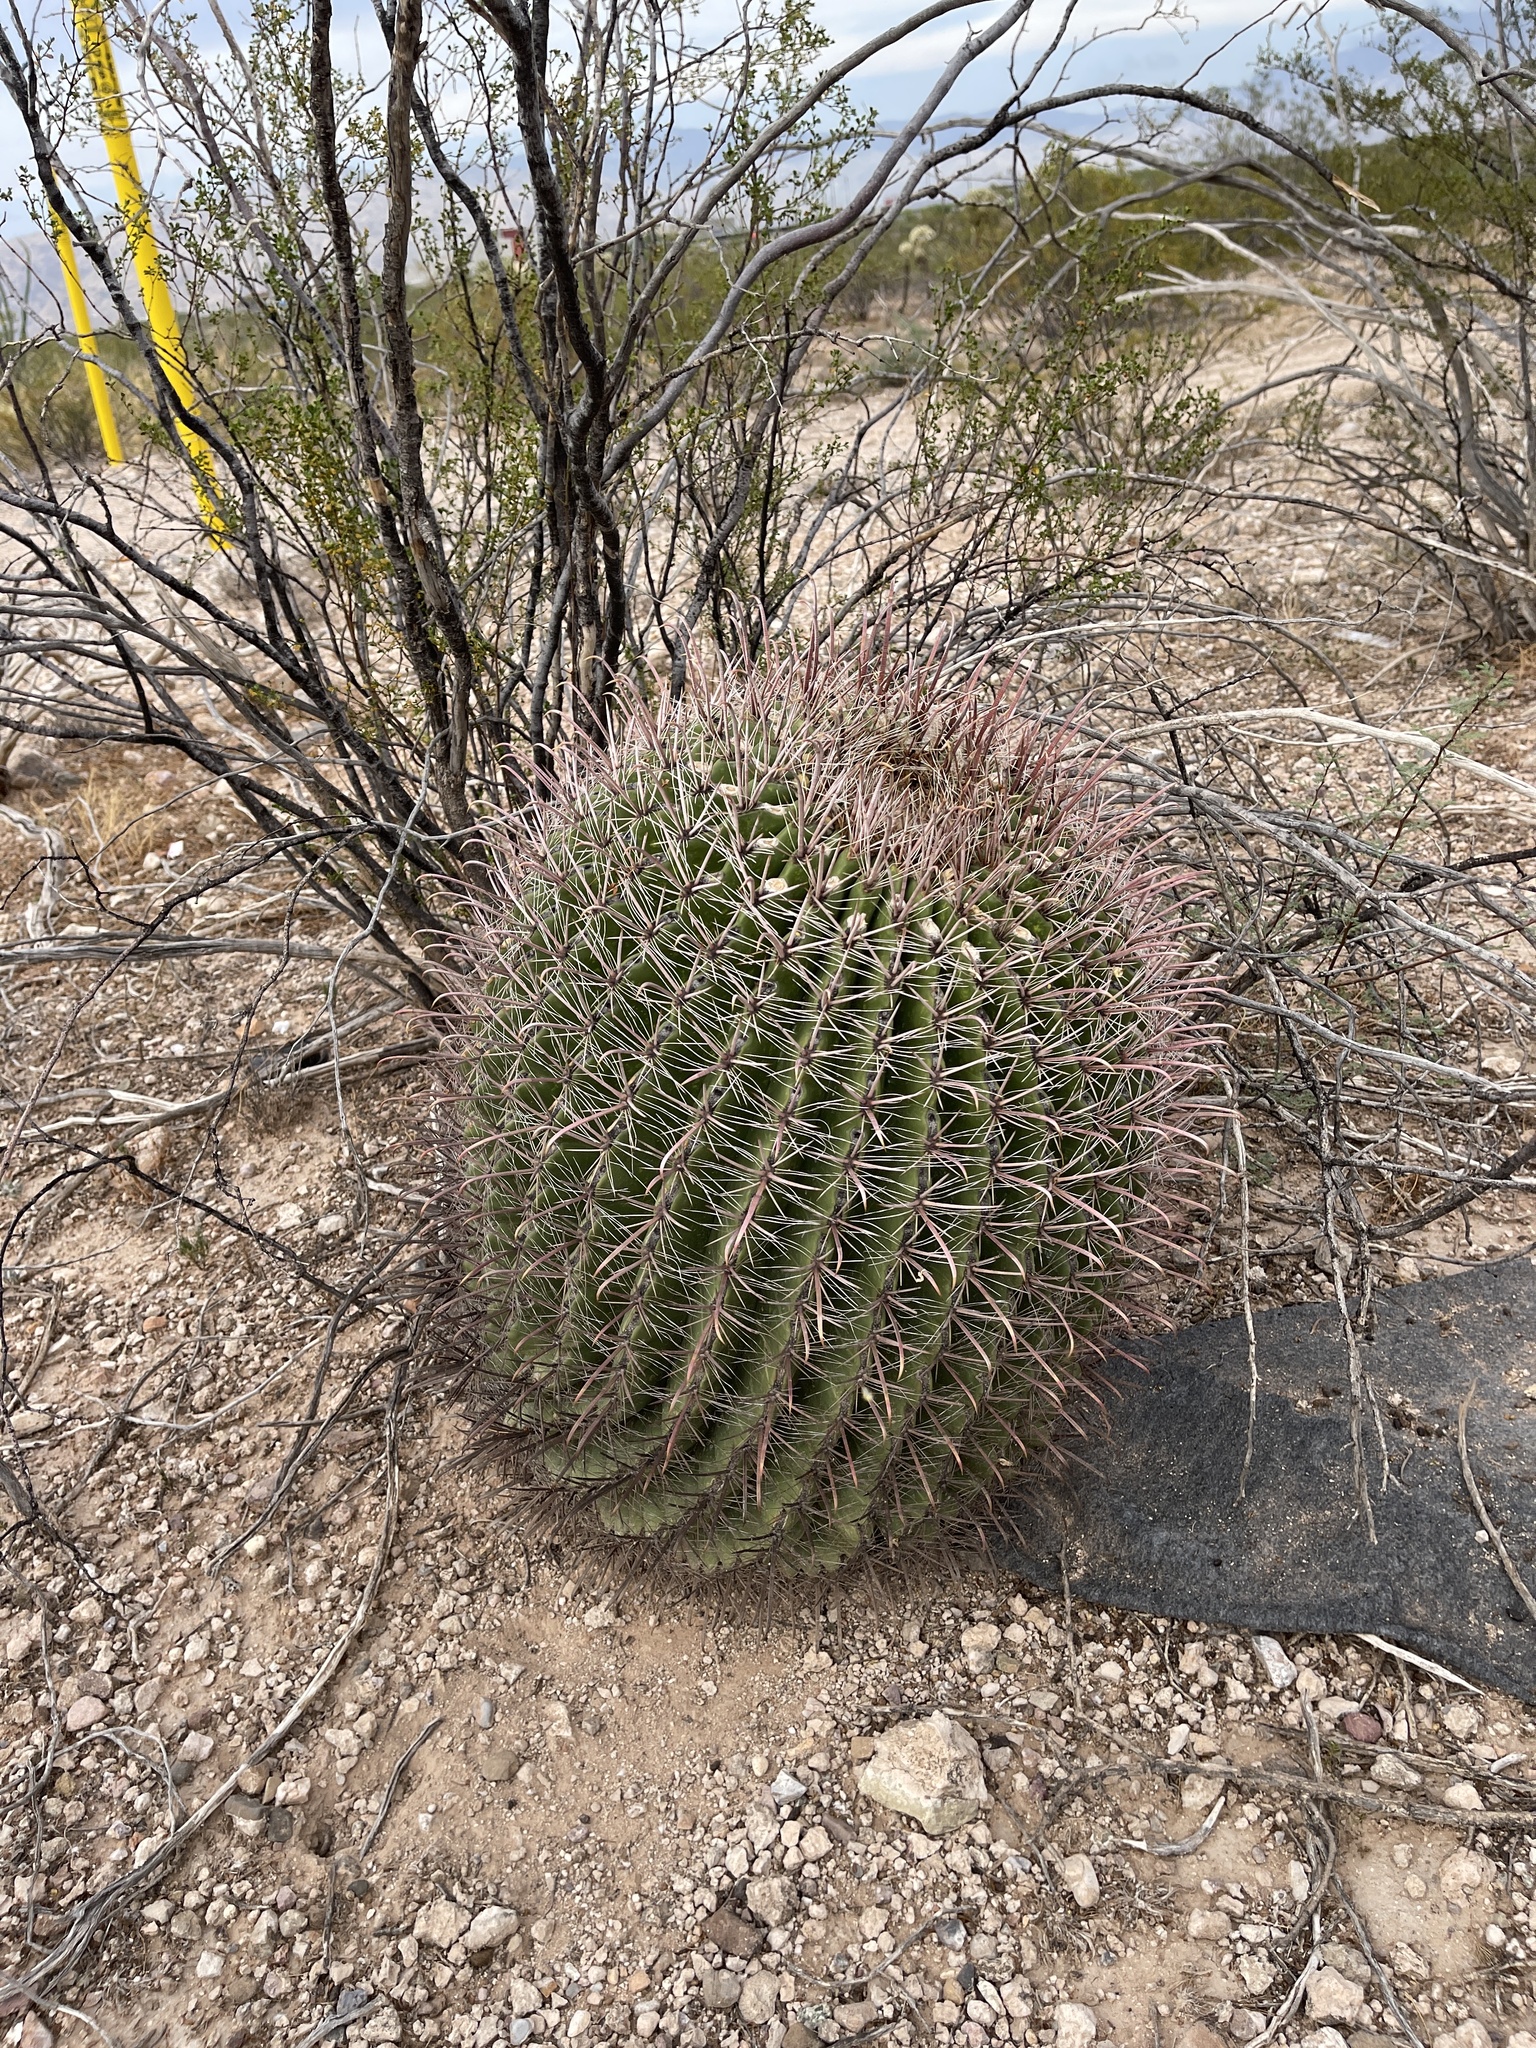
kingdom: Plantae
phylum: Tracheophyta
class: Magnoliopsida
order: Caryophyllales
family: Cactaceae
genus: Ferocactus
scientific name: Ferocactus wislizeni
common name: Candy barrel cactus
